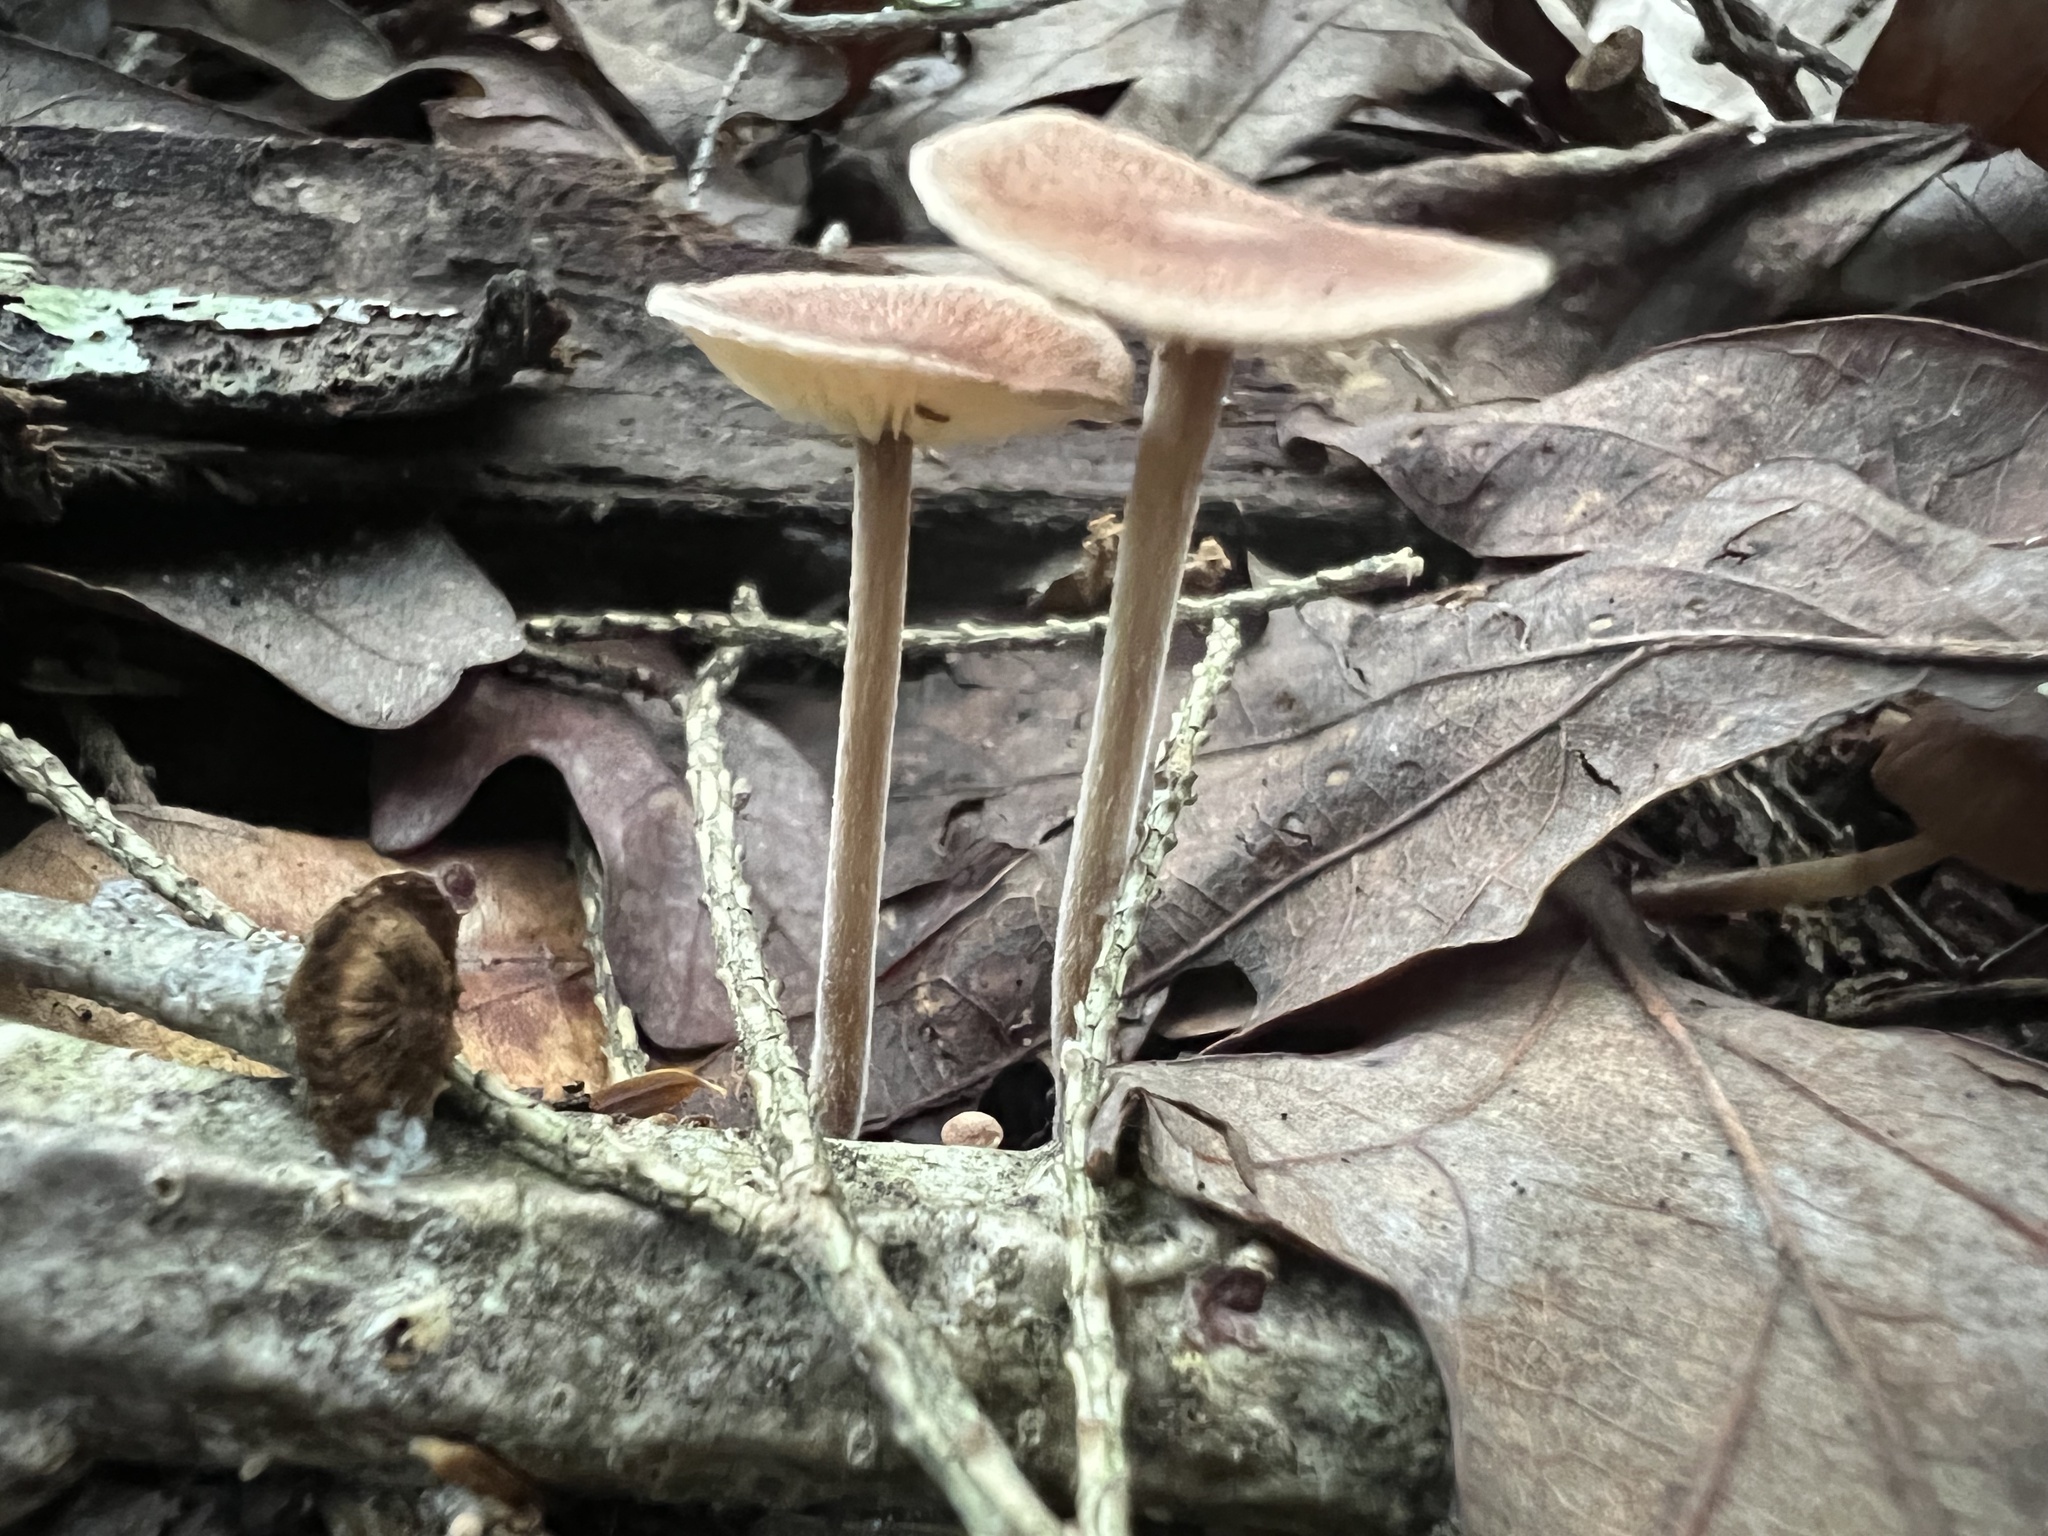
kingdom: Fungi
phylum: Basidiomycota
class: Agaricomycetes
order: Agaricales
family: Omphalotaceae
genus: Collybiopsis
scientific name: Collybiopsis confluens
